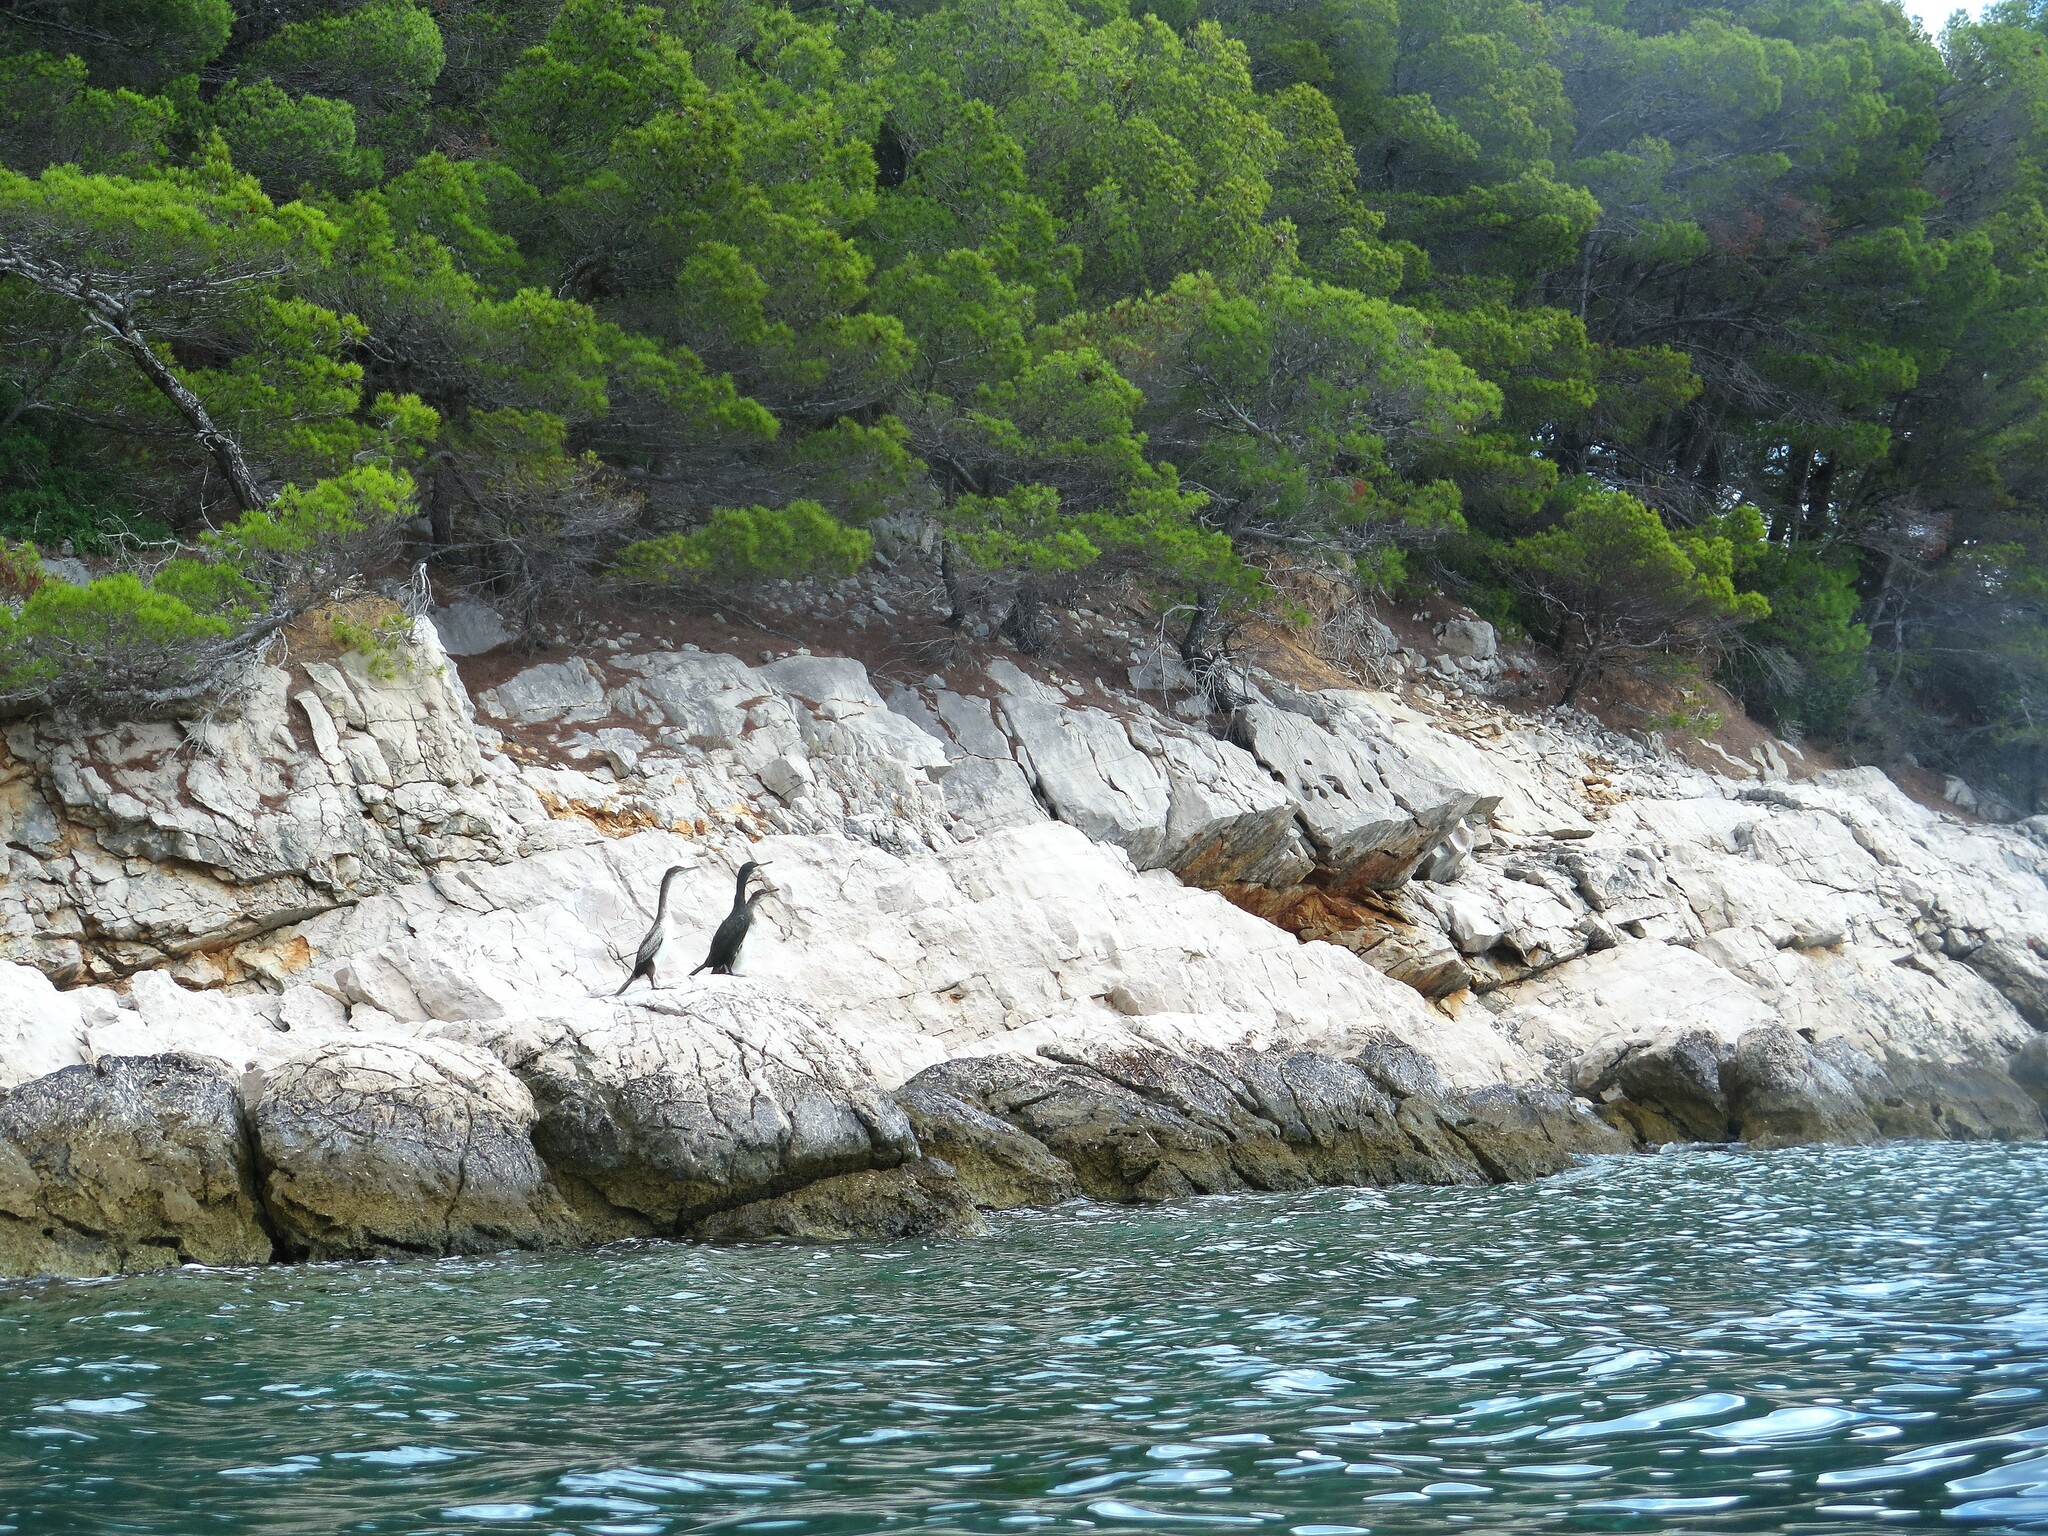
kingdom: Animalia
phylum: Chordata
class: Aves
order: Suliformes
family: Phalacrocoracidae
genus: Phalacrocorax
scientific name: Phalacrocorax aristotelis
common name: European shag
